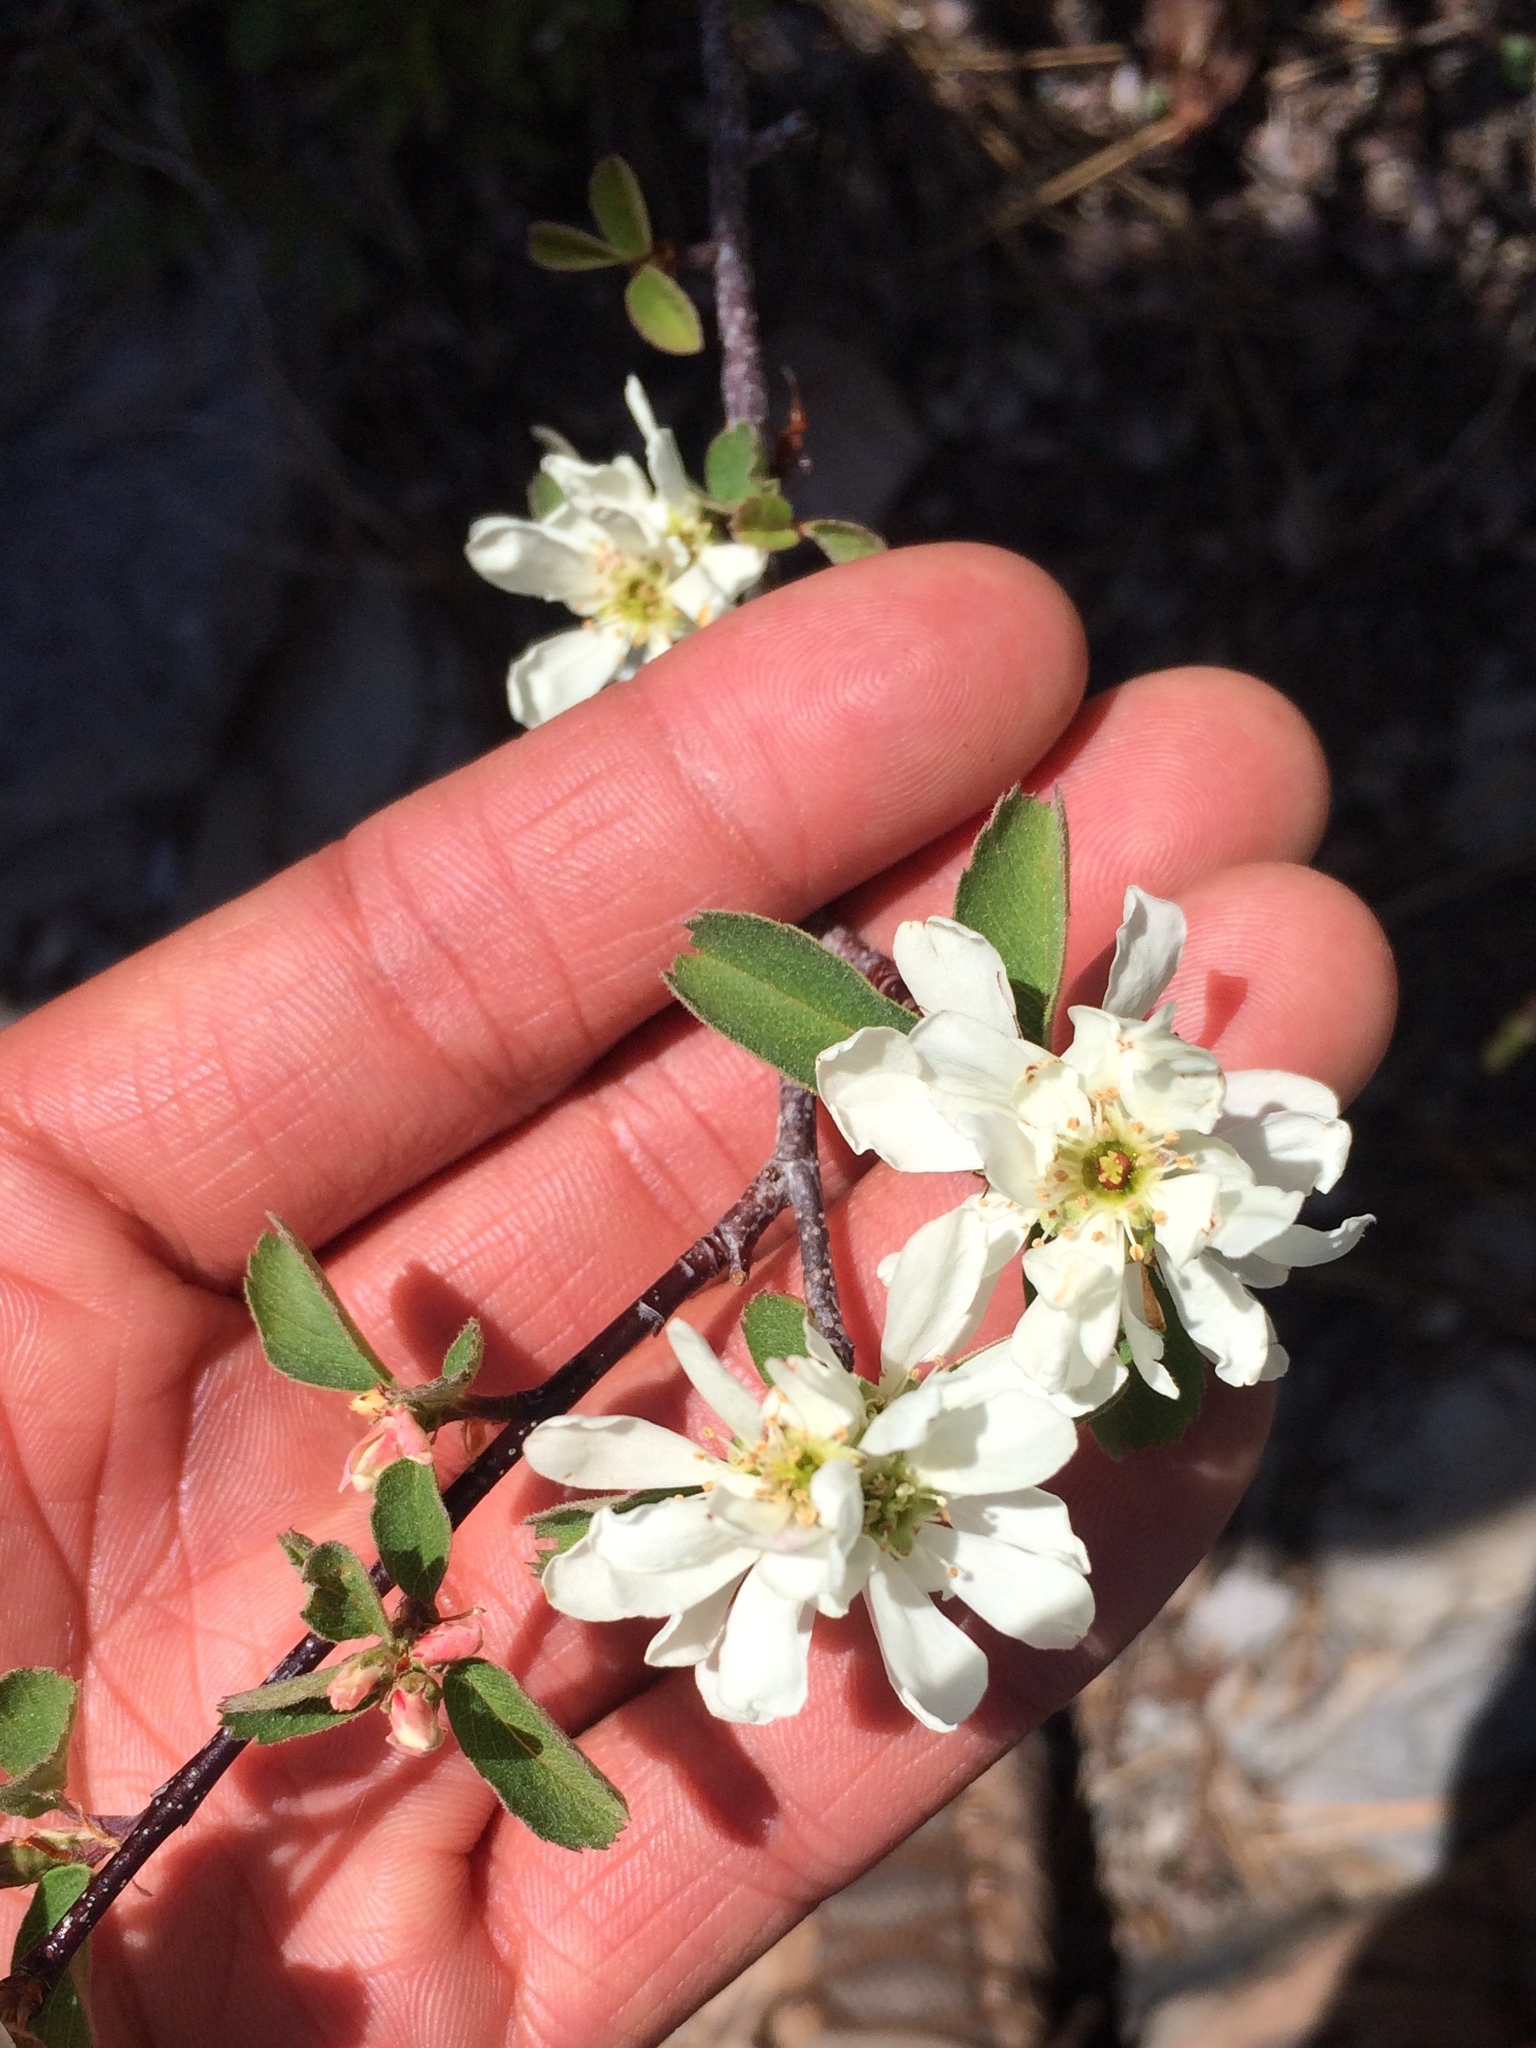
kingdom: Plantae
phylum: Tracheophyta
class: Magnoliopsida
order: Rosales
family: Rosaceae
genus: Amelanchier
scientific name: Amelanchier alnifolia
